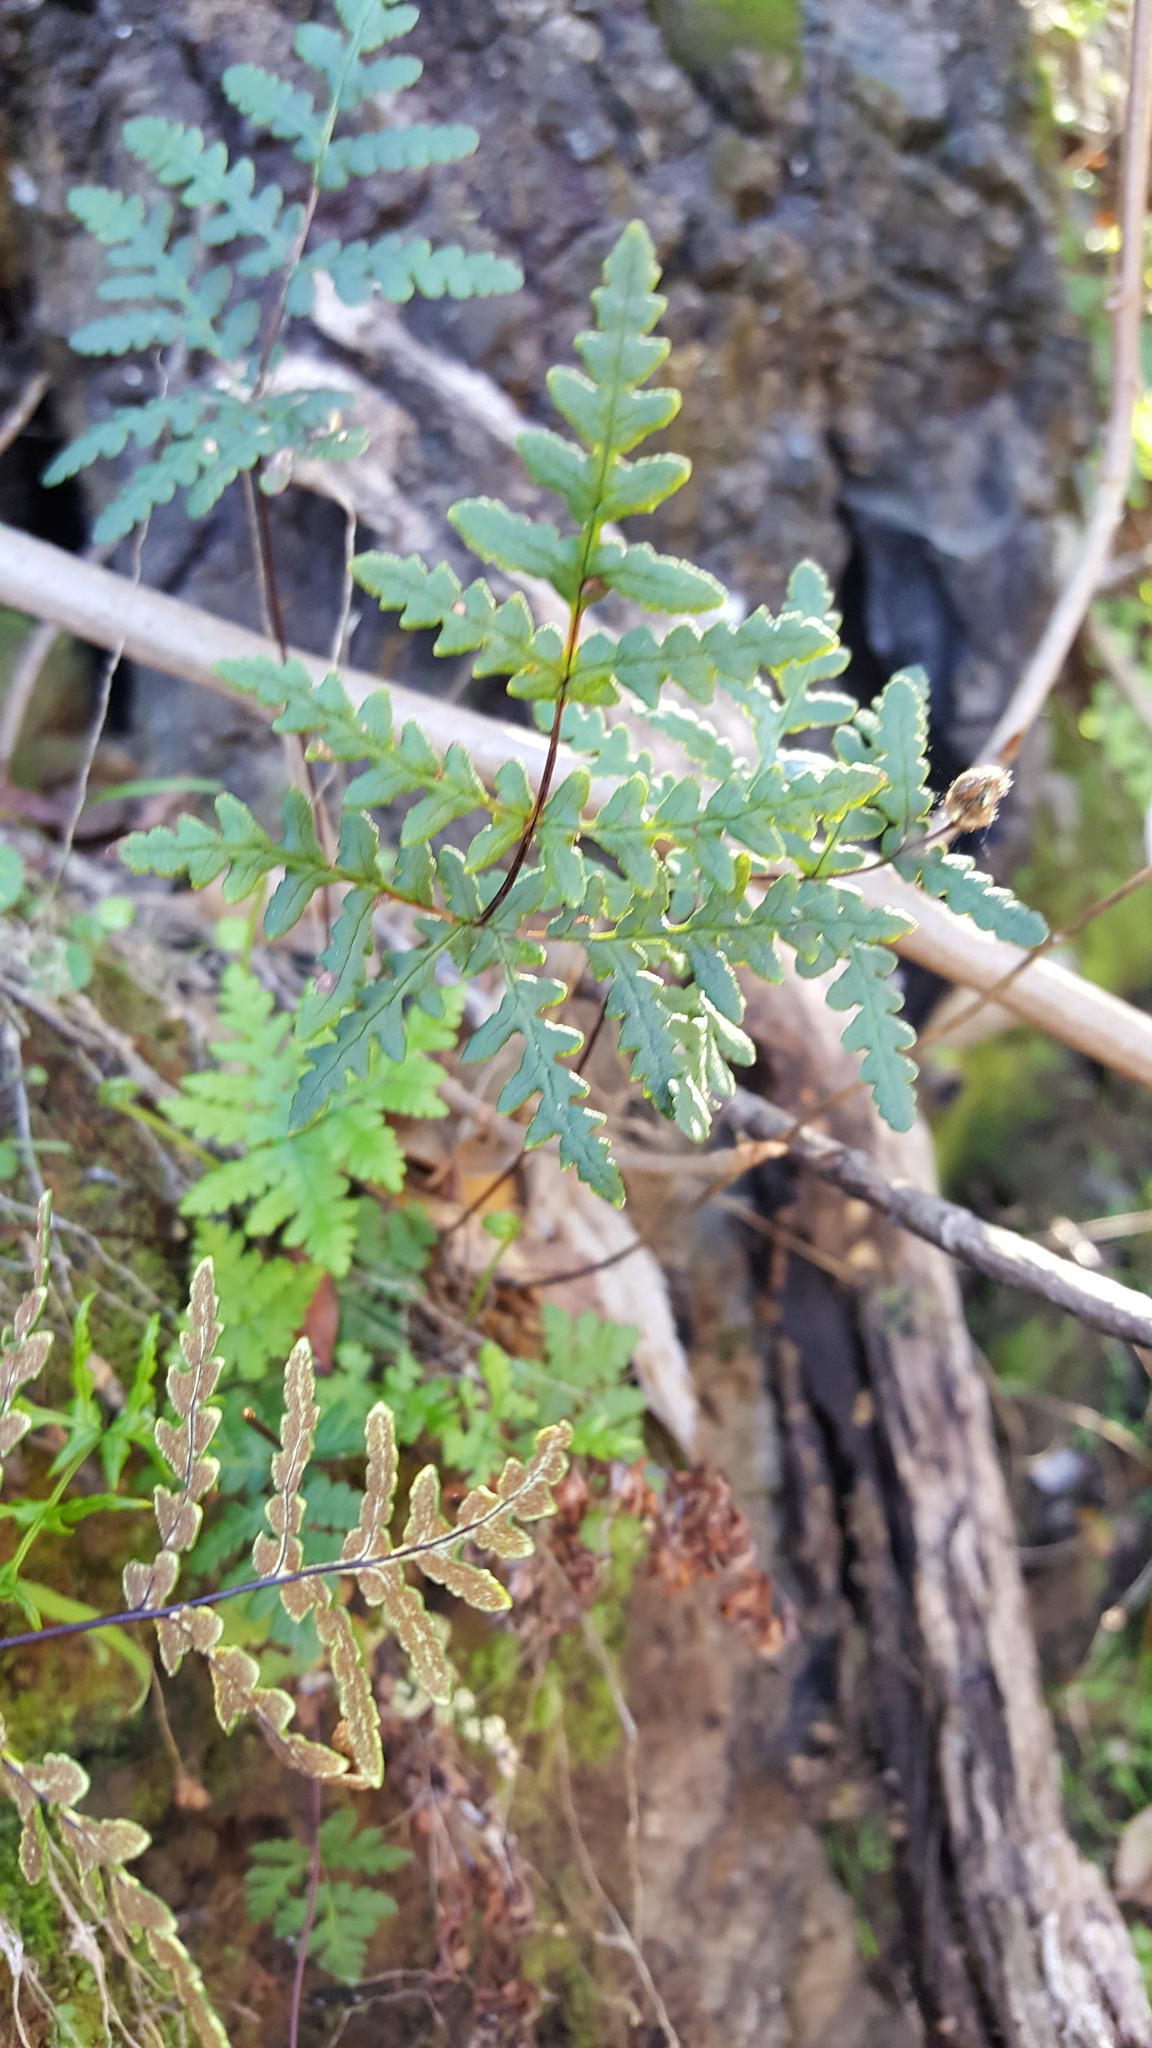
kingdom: Plantae
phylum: Tracheophyta
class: Polypodiopsida
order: Polypodiales
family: Pteridaceae
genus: Pentagramma
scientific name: Pentagramma triangularis
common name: Gold fern
